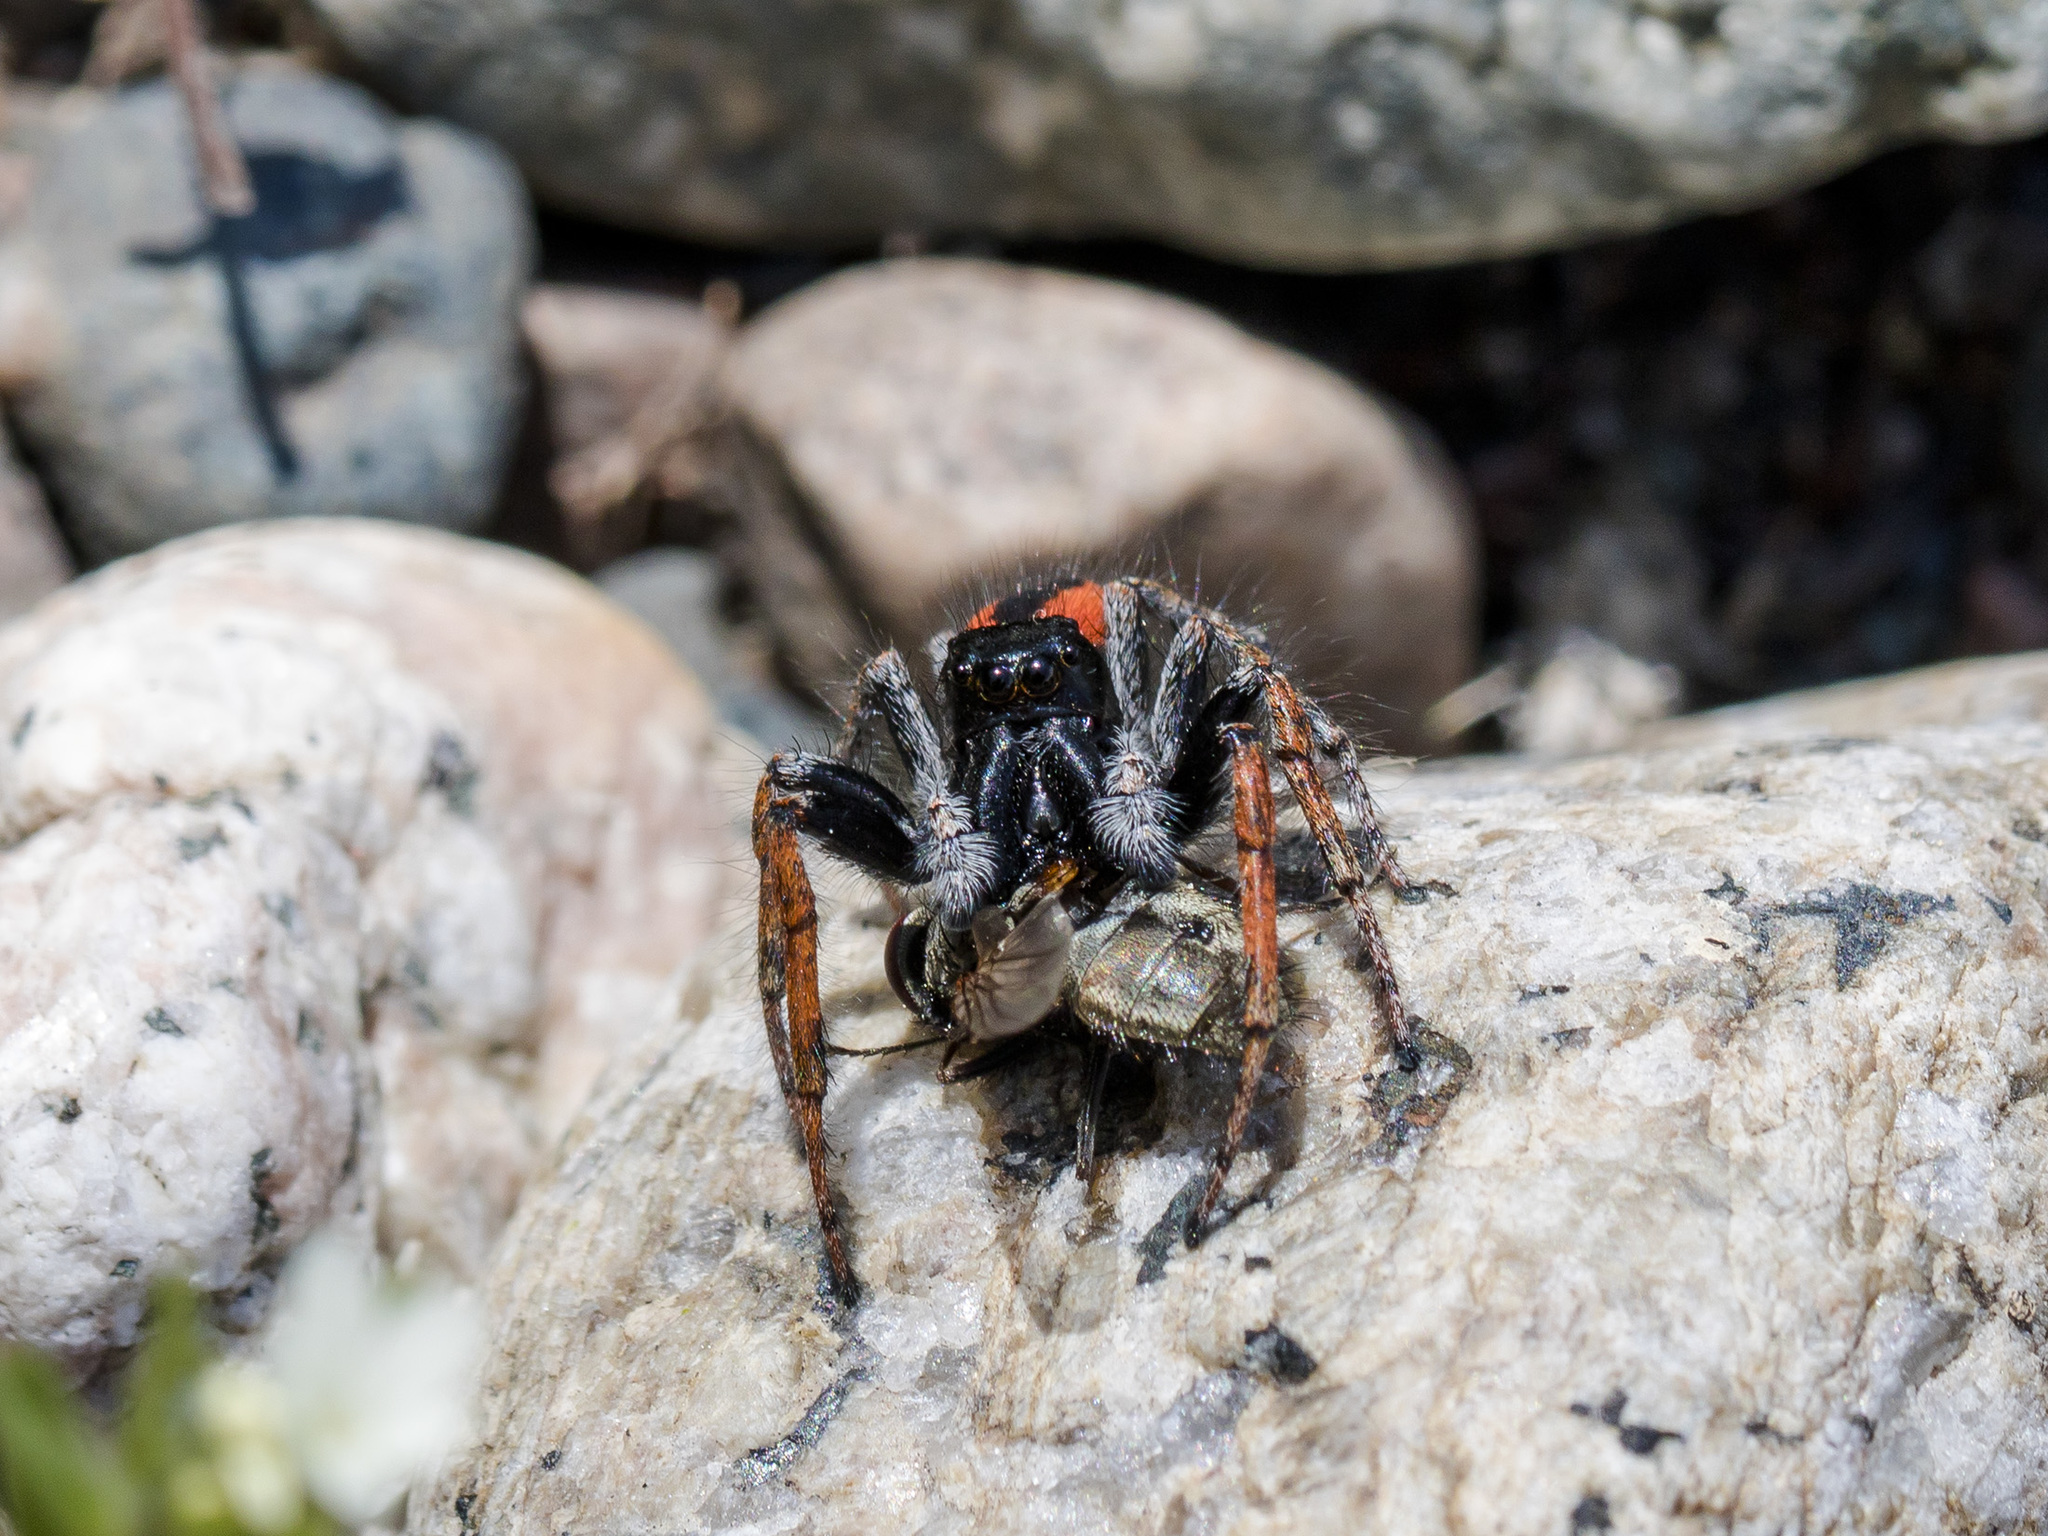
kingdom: Animalia
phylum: Arthropoda
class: Arachnida
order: Araneae
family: Salticidae
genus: Philaeus
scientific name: Philaeus chrysops
